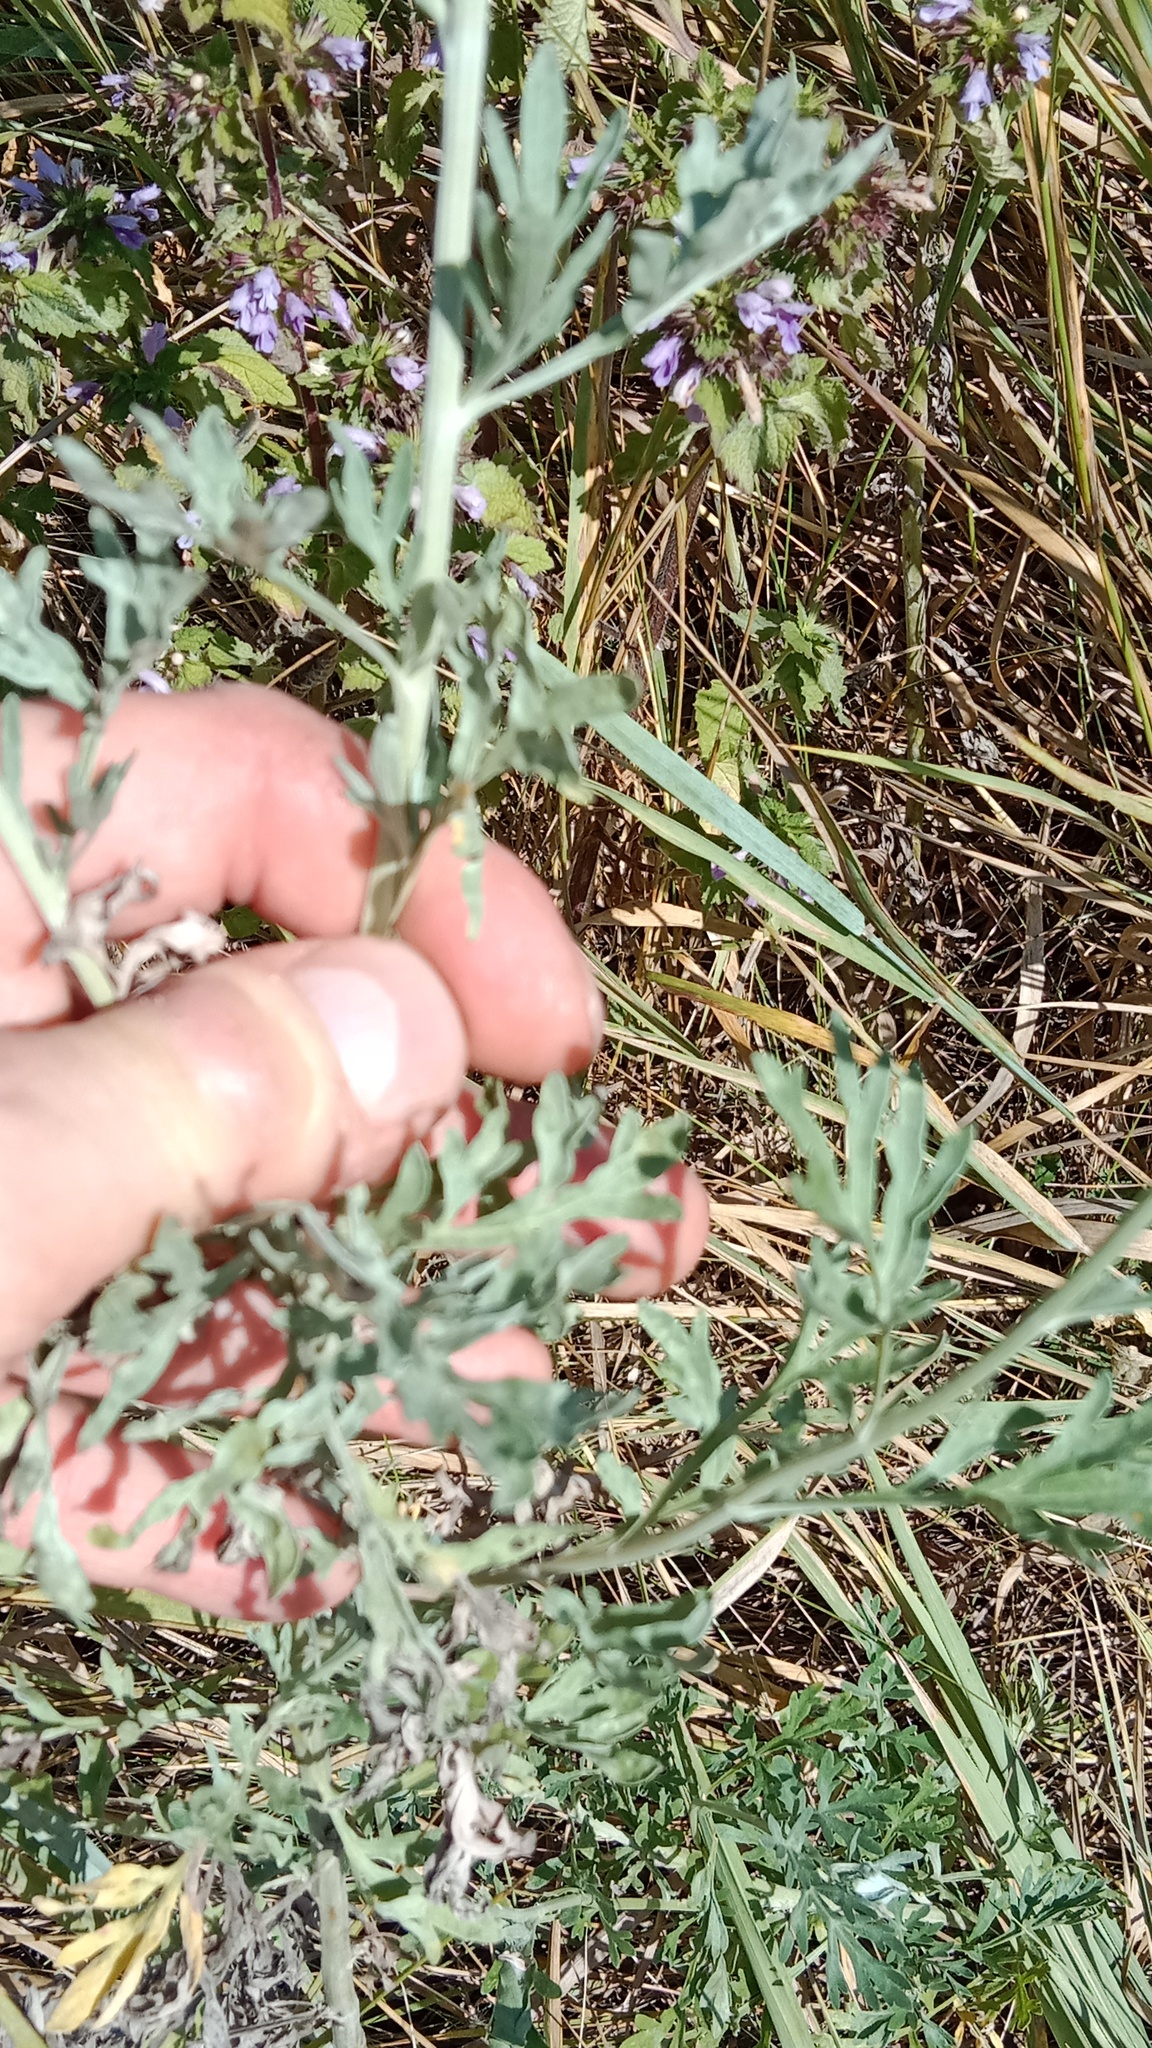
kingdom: Plantae
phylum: Tracheophyta
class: Magnoliopsida
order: Asterales
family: Asteraceae
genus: Artemisia
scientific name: Artemisia absinthium
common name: Wormwood
